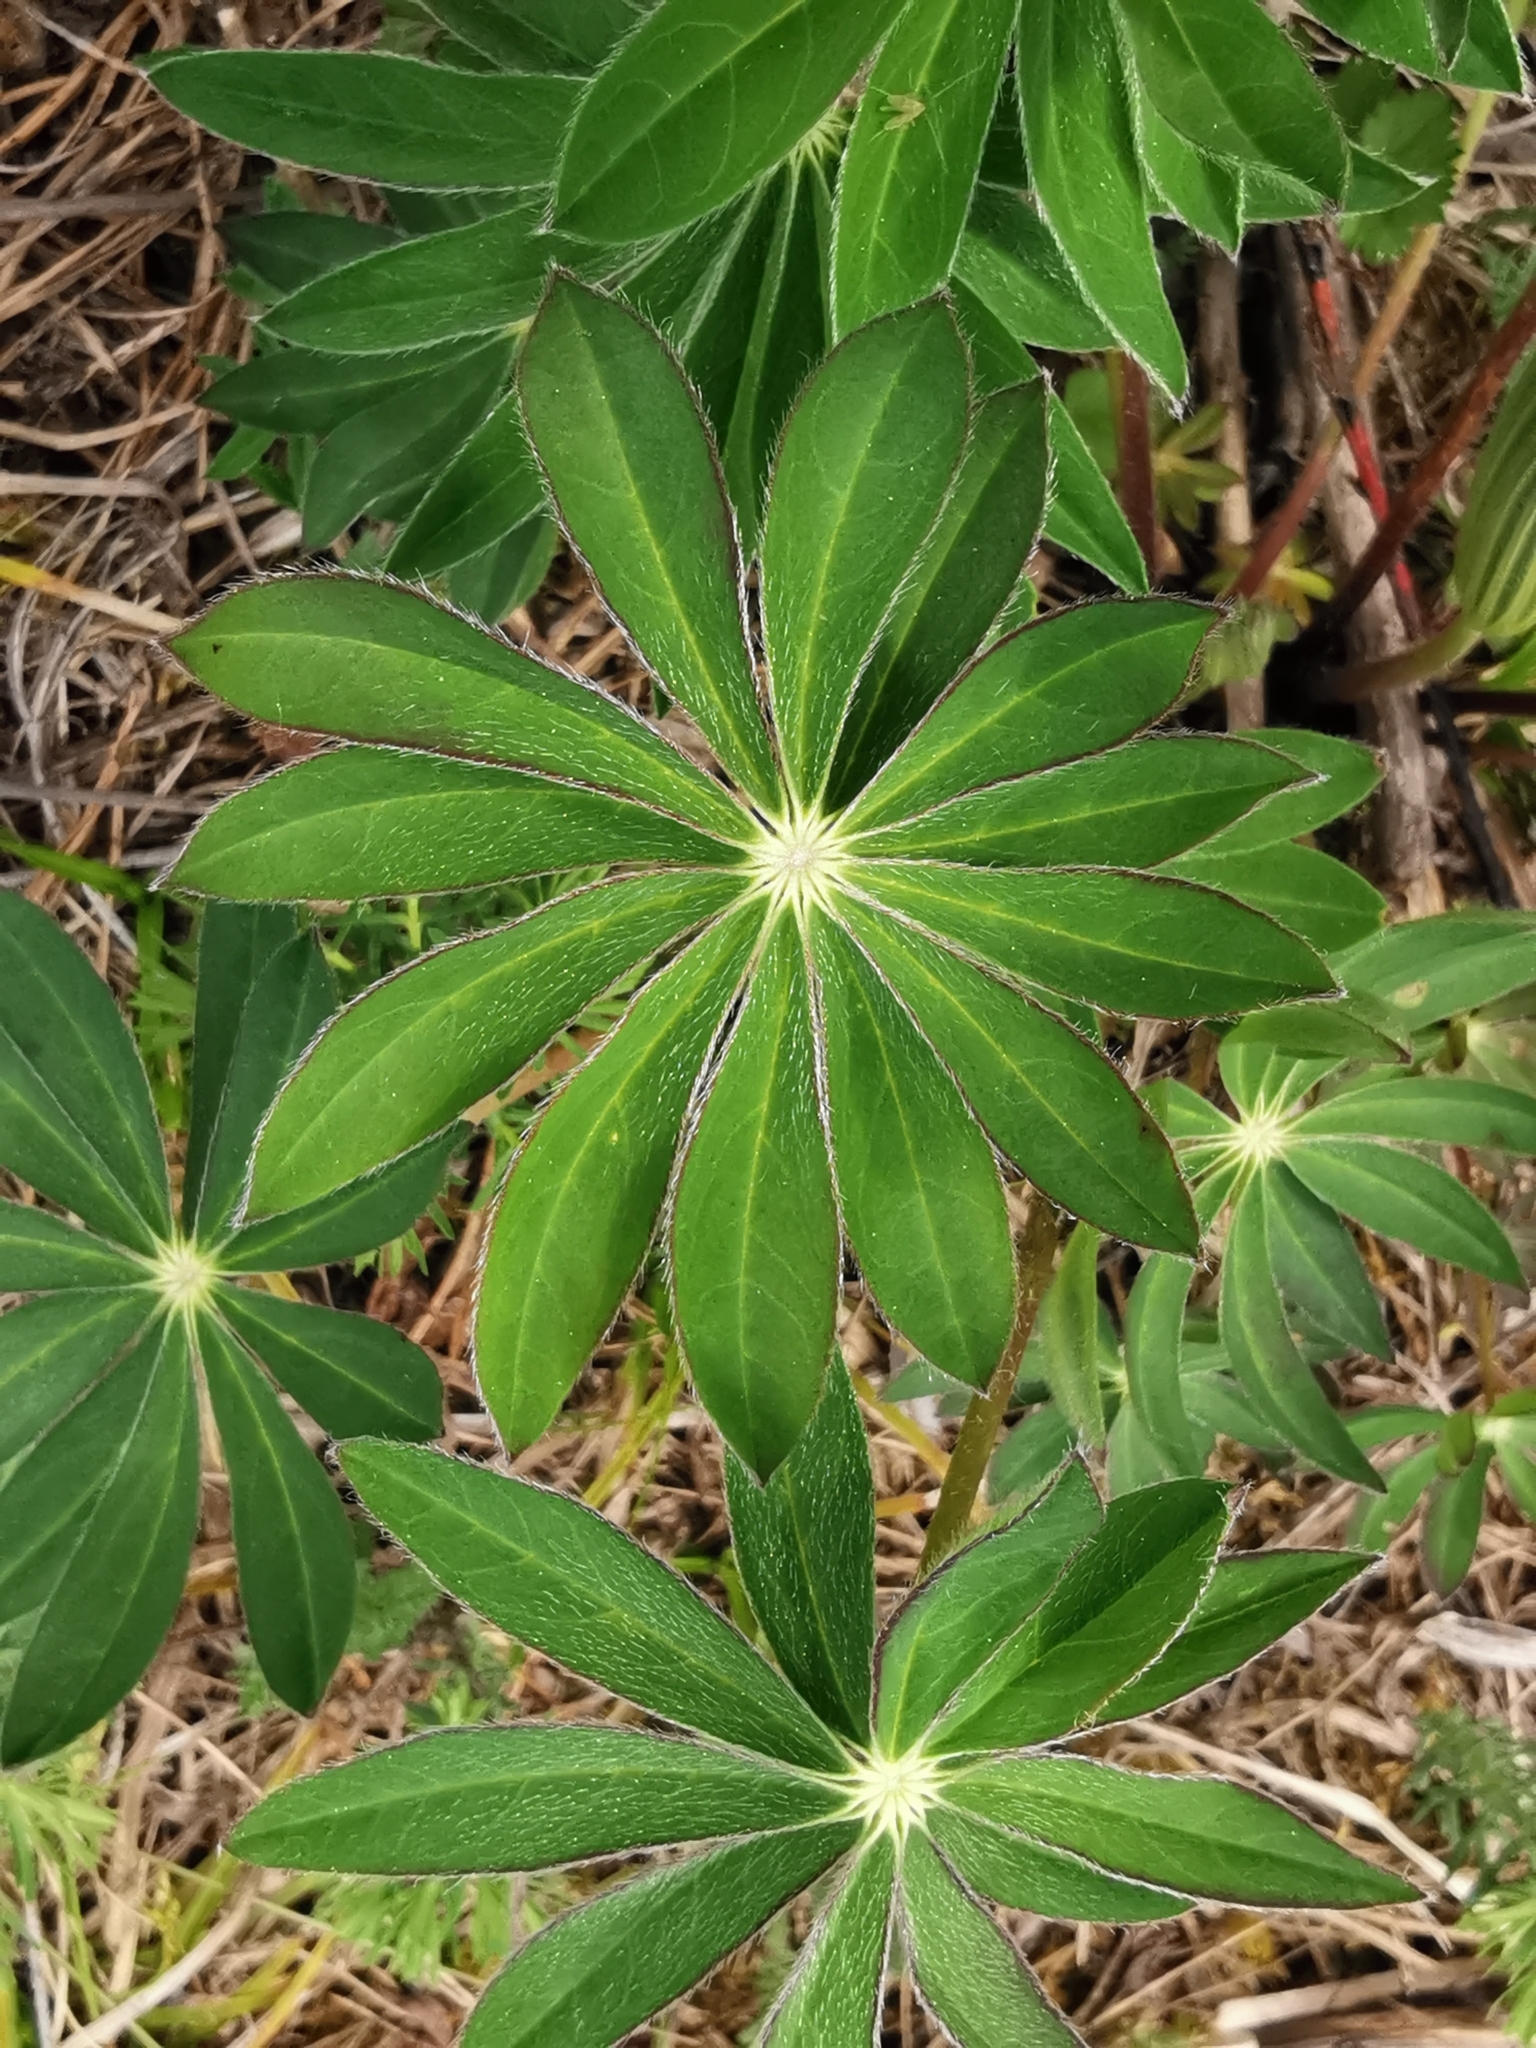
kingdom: Plantae
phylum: Tracheophyta
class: Magnoliopsida
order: Fabales
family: Fabaceae
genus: Lupinus
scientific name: Lupinus polyphyllus
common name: Garden lupin
